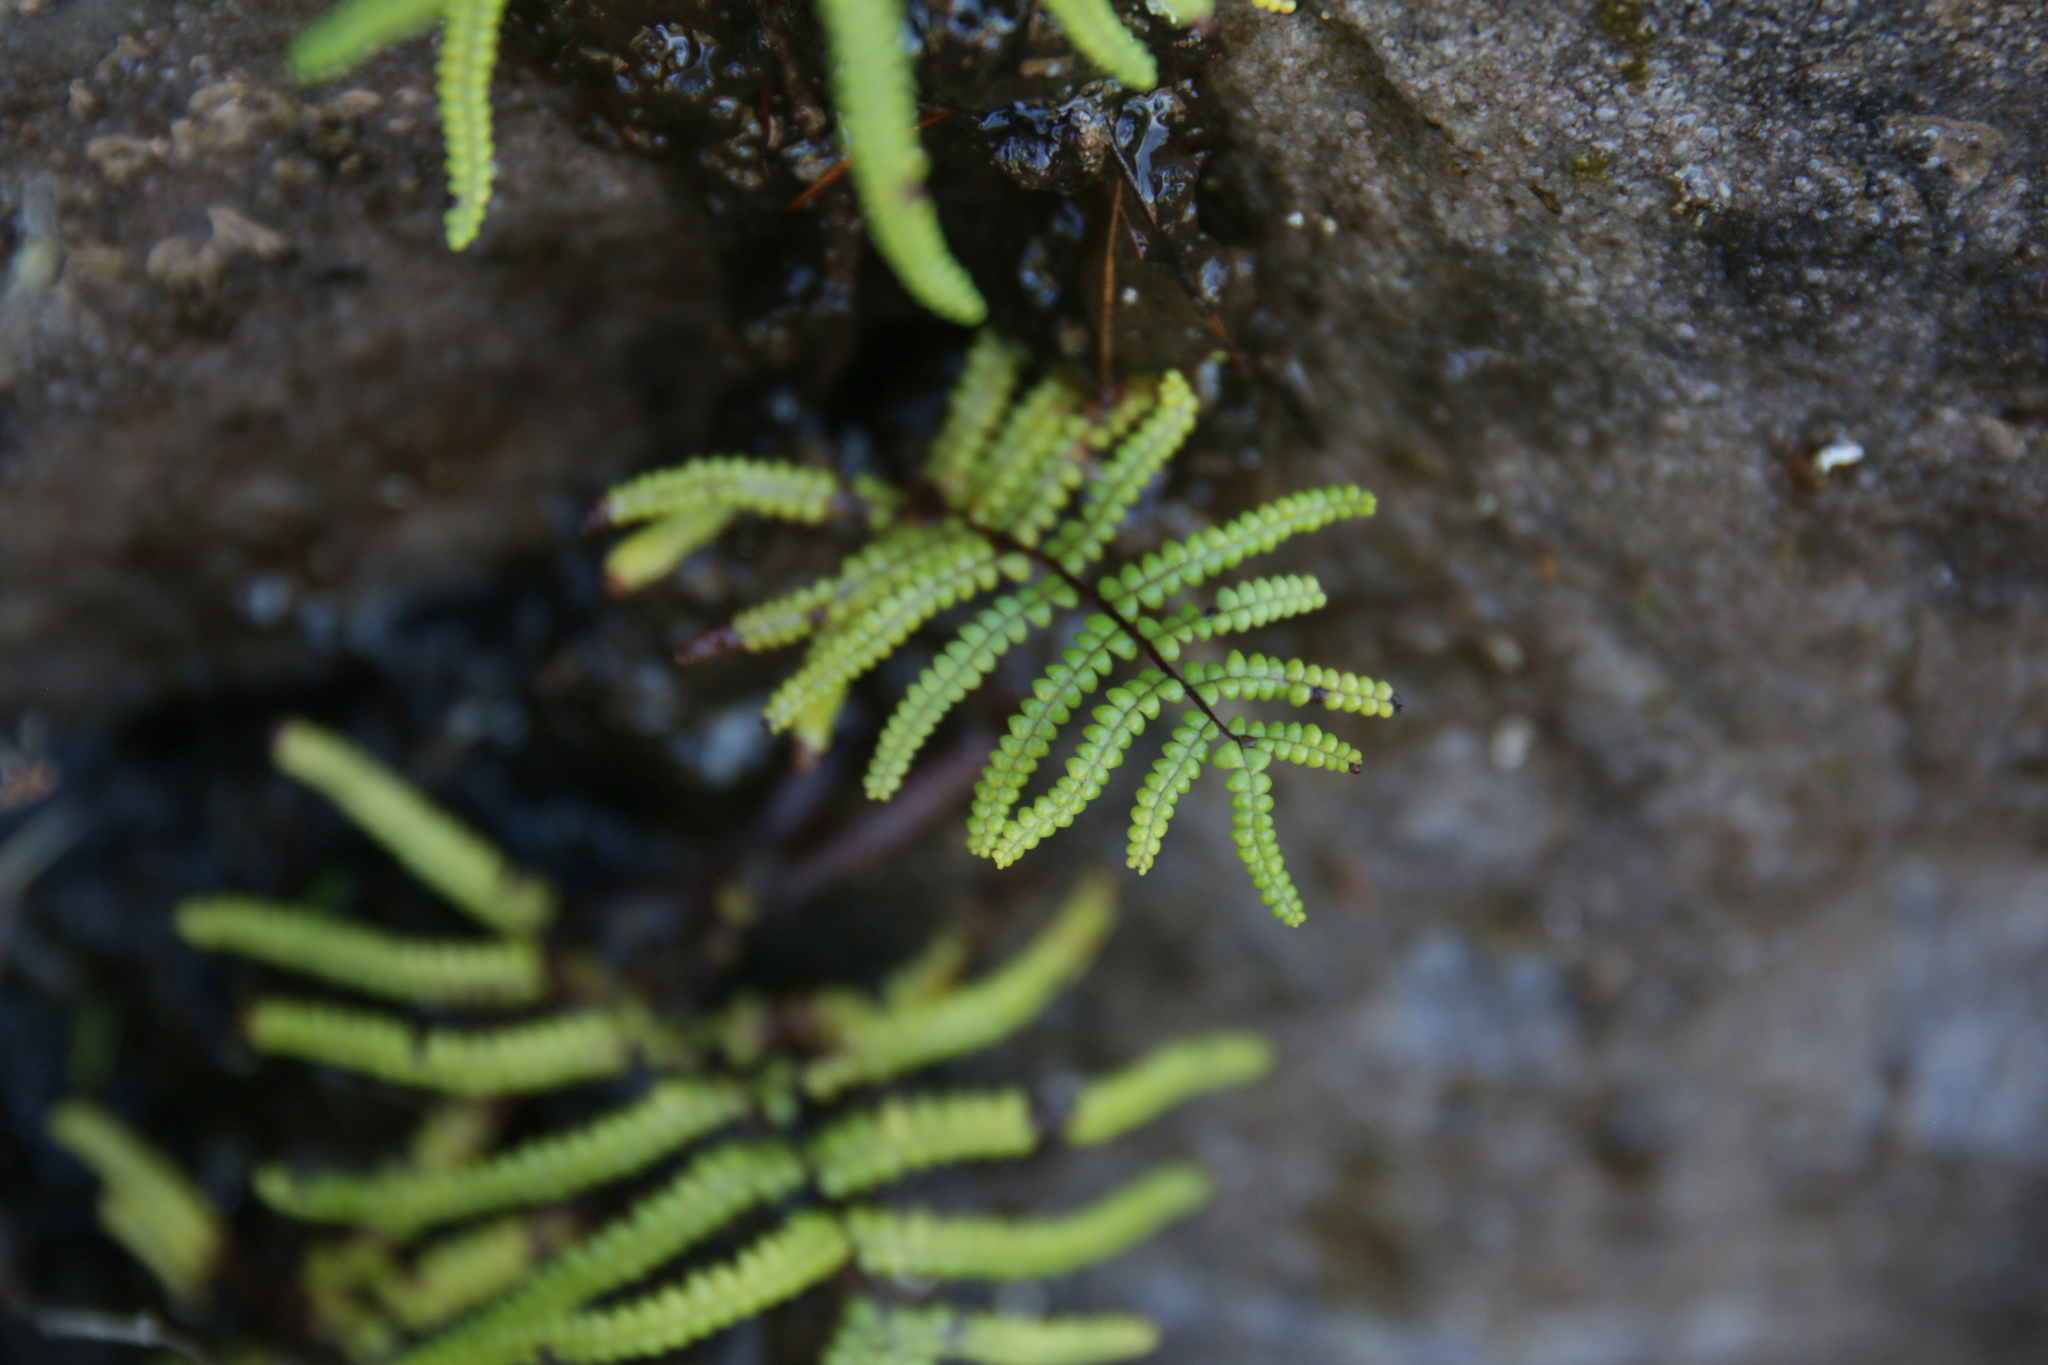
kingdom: Plantae
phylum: Tracheophyta
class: Polypodiopsida
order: Gleicheniales
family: Gleicheniaceae
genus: Gleichenia
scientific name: Gleichenia polypodioides
